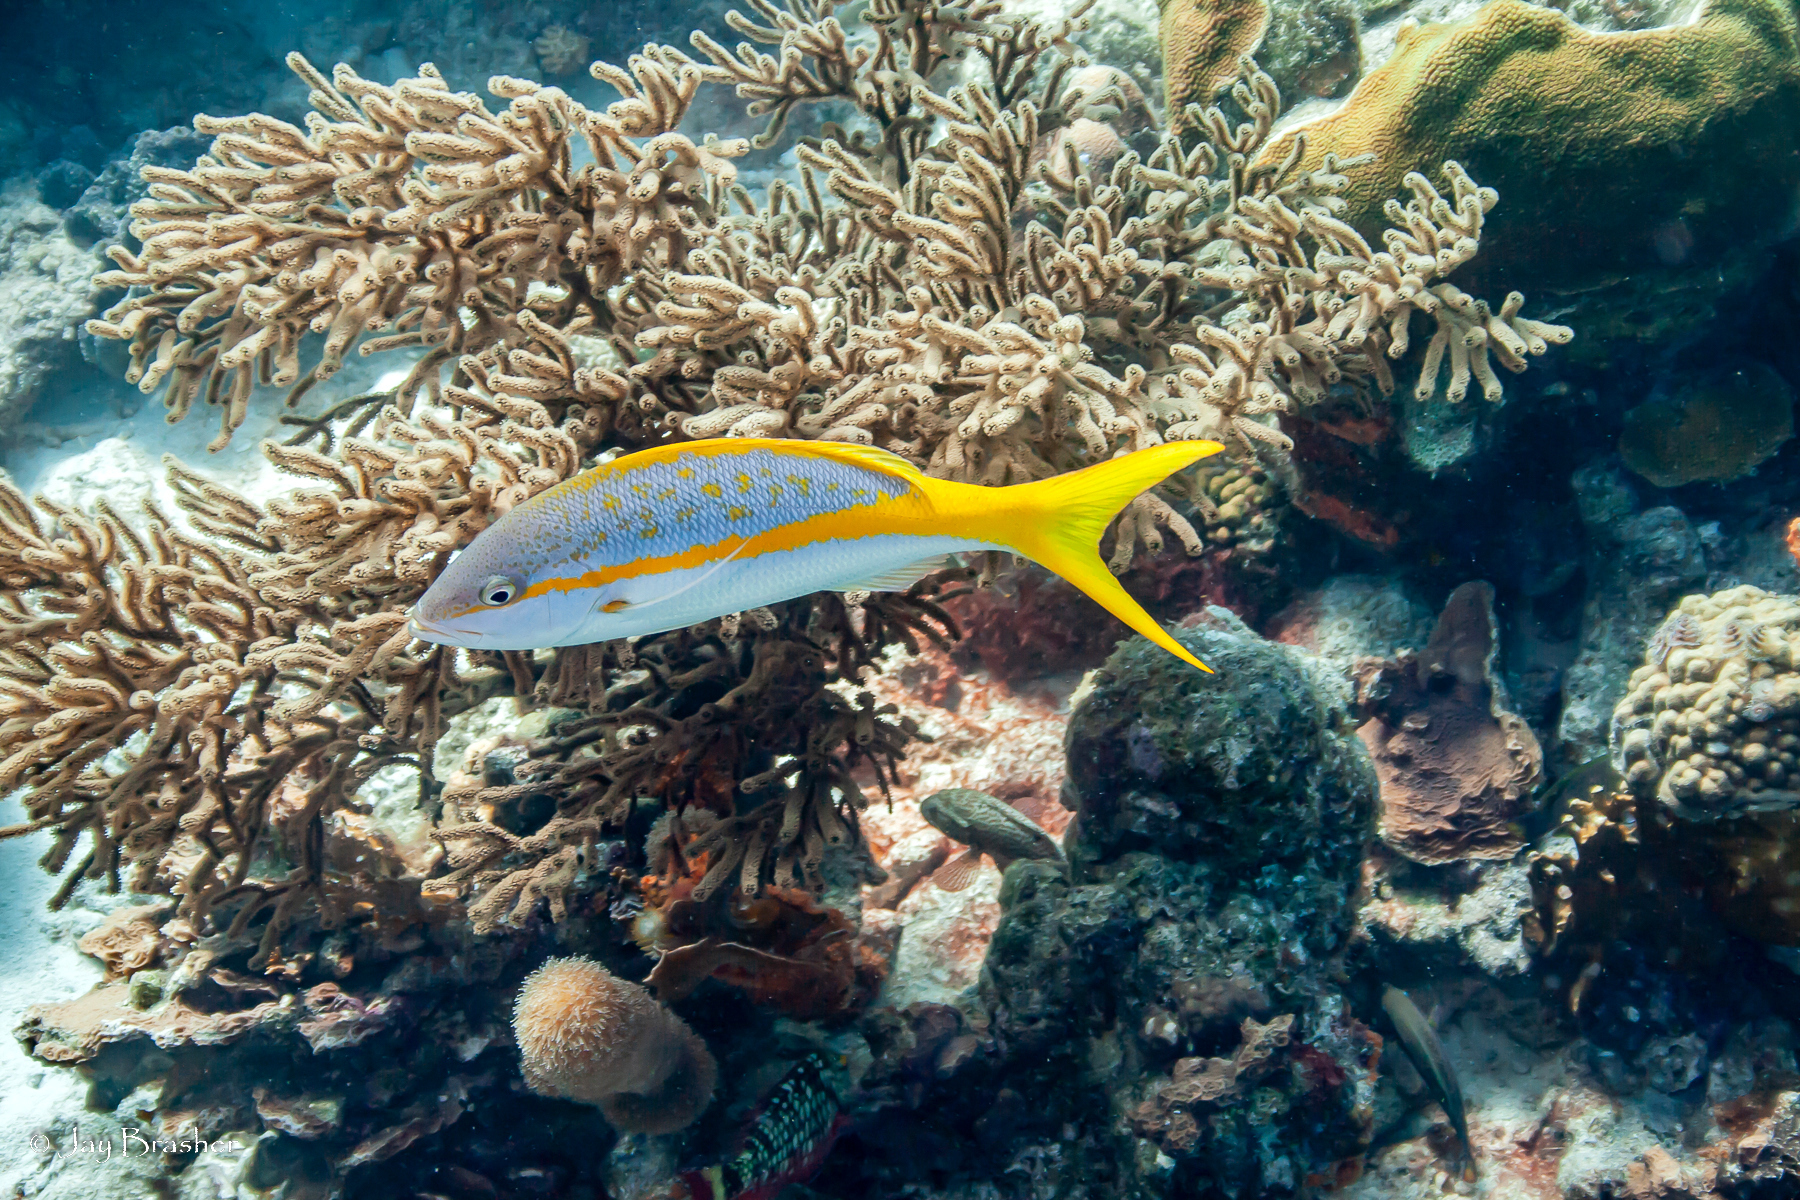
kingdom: Animalia
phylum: Cnidaria
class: Anthozoa
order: Scleractinia
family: Meandrinidae
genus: Dendrogyra
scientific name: Dendrogyra cylindrus
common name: Pillar coral
